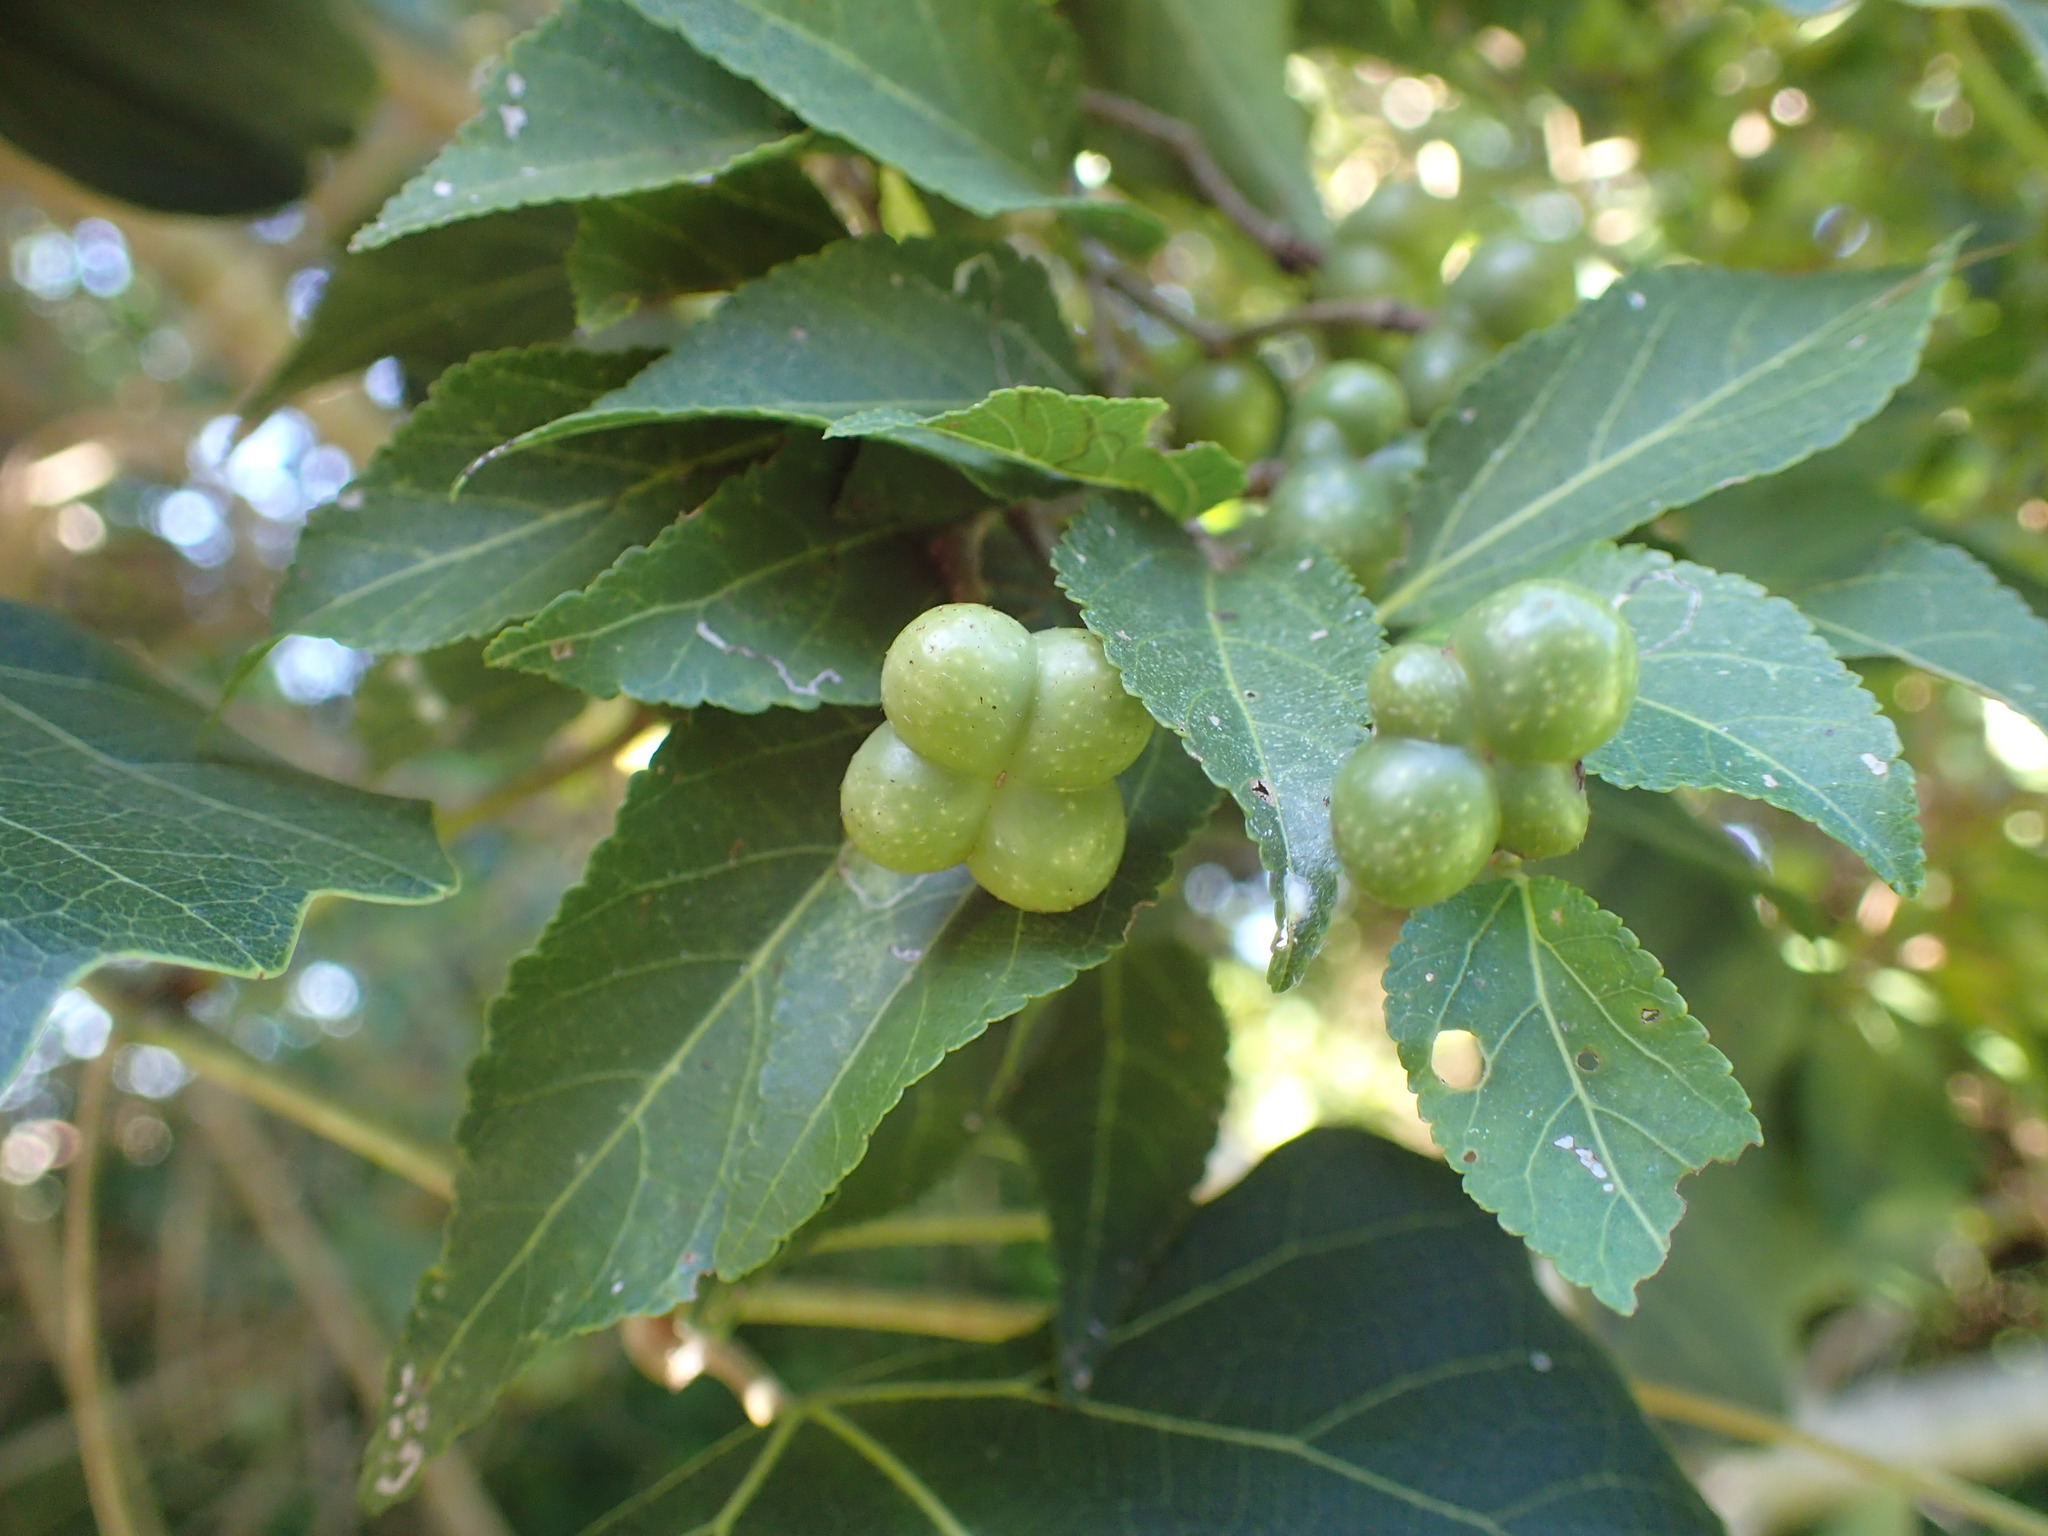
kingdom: Plantae
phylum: Tracheophyta
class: Magnoliopsida
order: Malvales
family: Malvaceae
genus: Grewia
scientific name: Grewia occidentalis
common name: Crossberry
